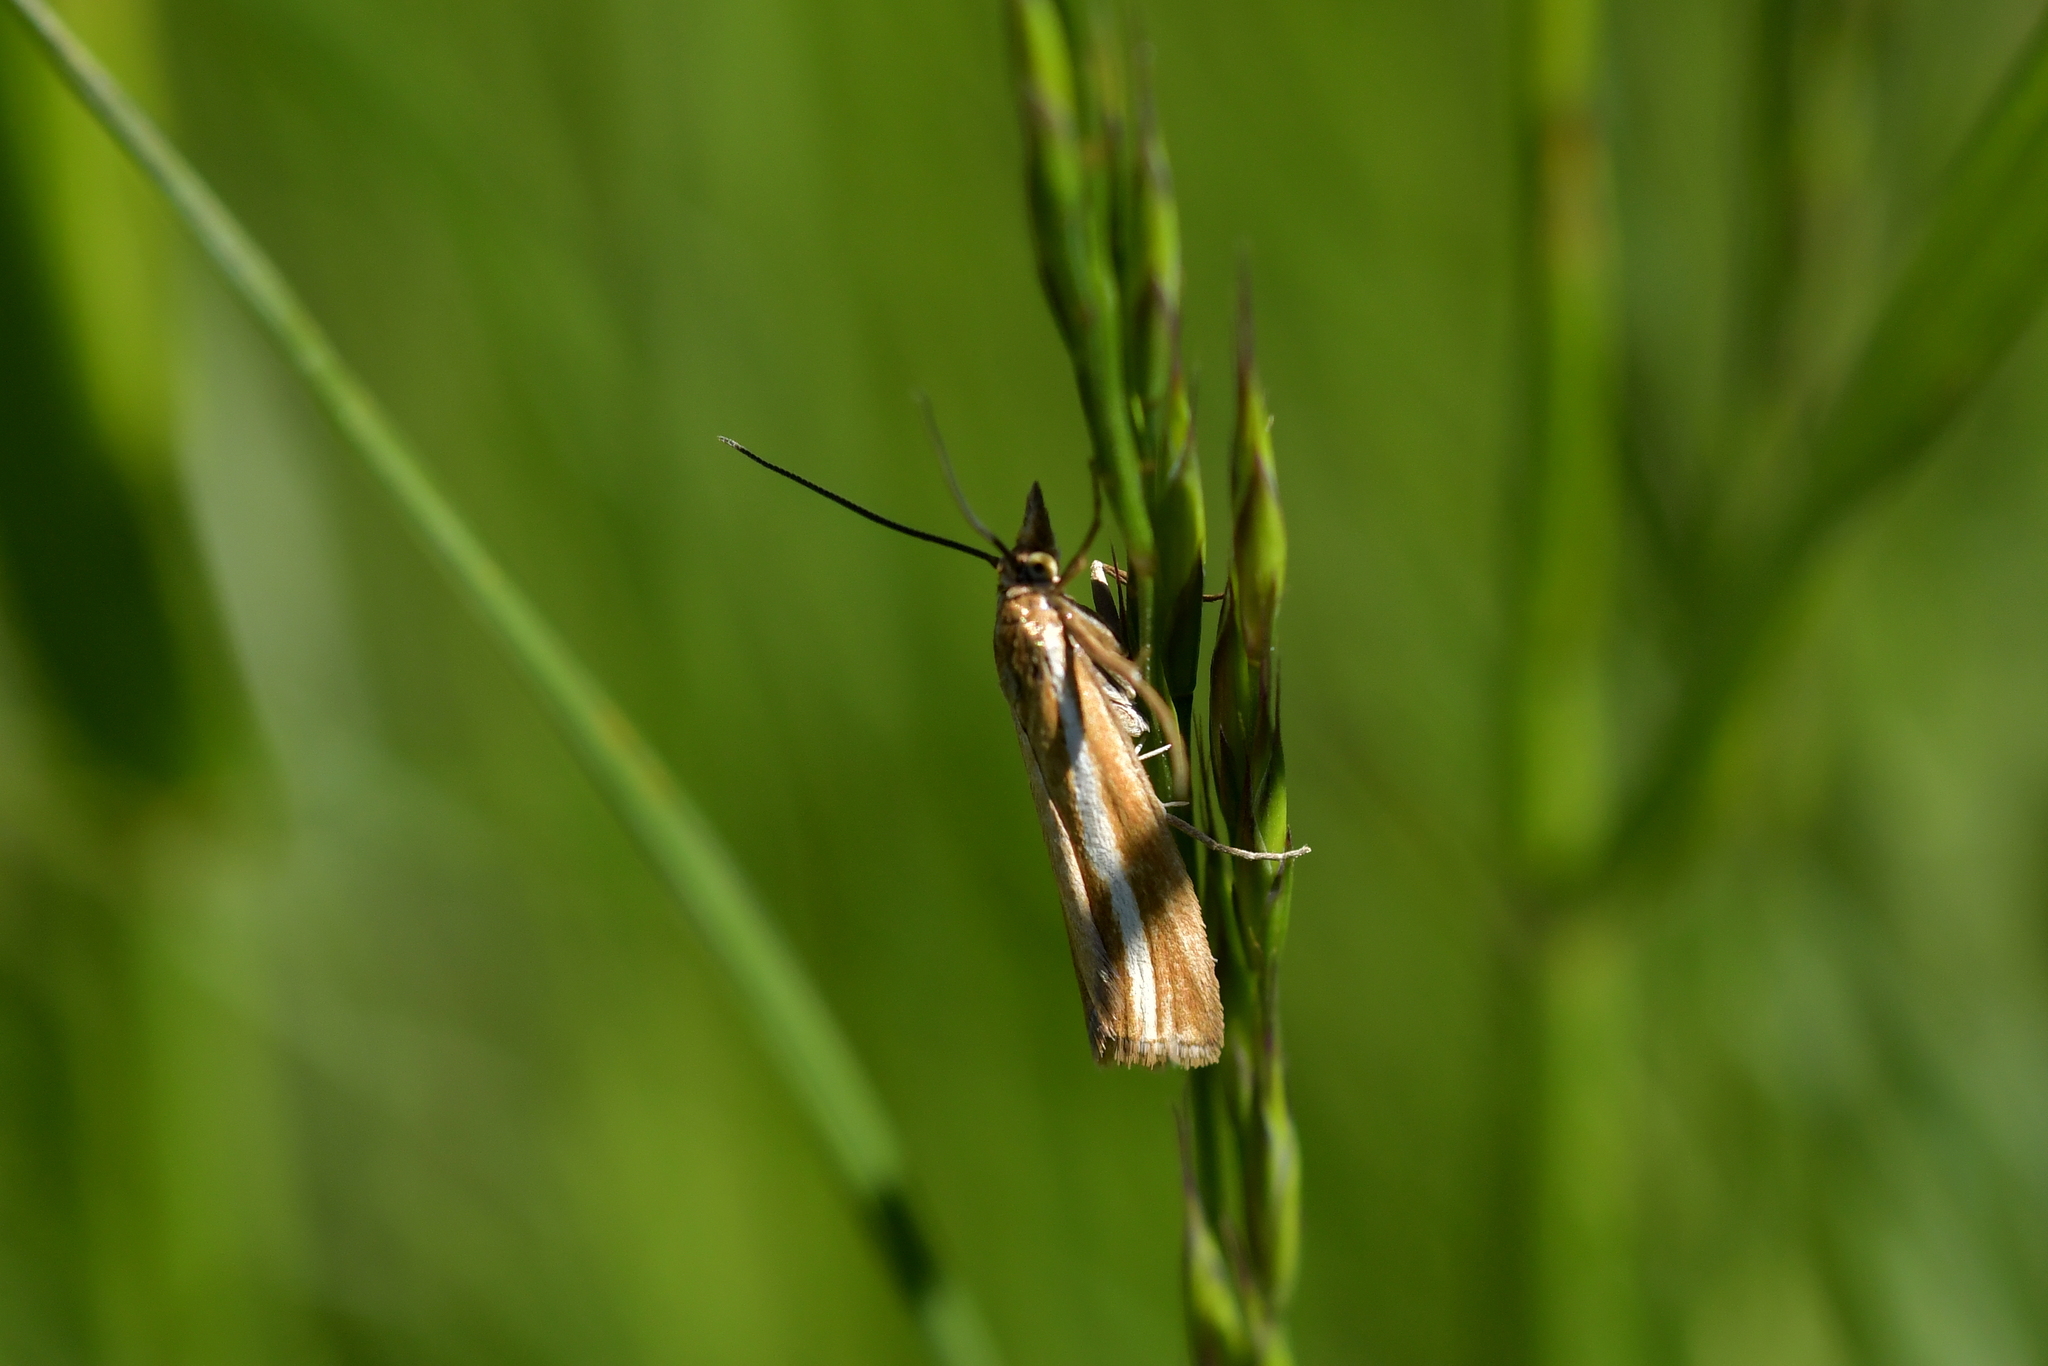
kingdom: Animalia
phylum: Arthropoda
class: Insecta
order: Lepidoptera
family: Crambidae
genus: Orocrambus
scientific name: Orocrambus melitastes
